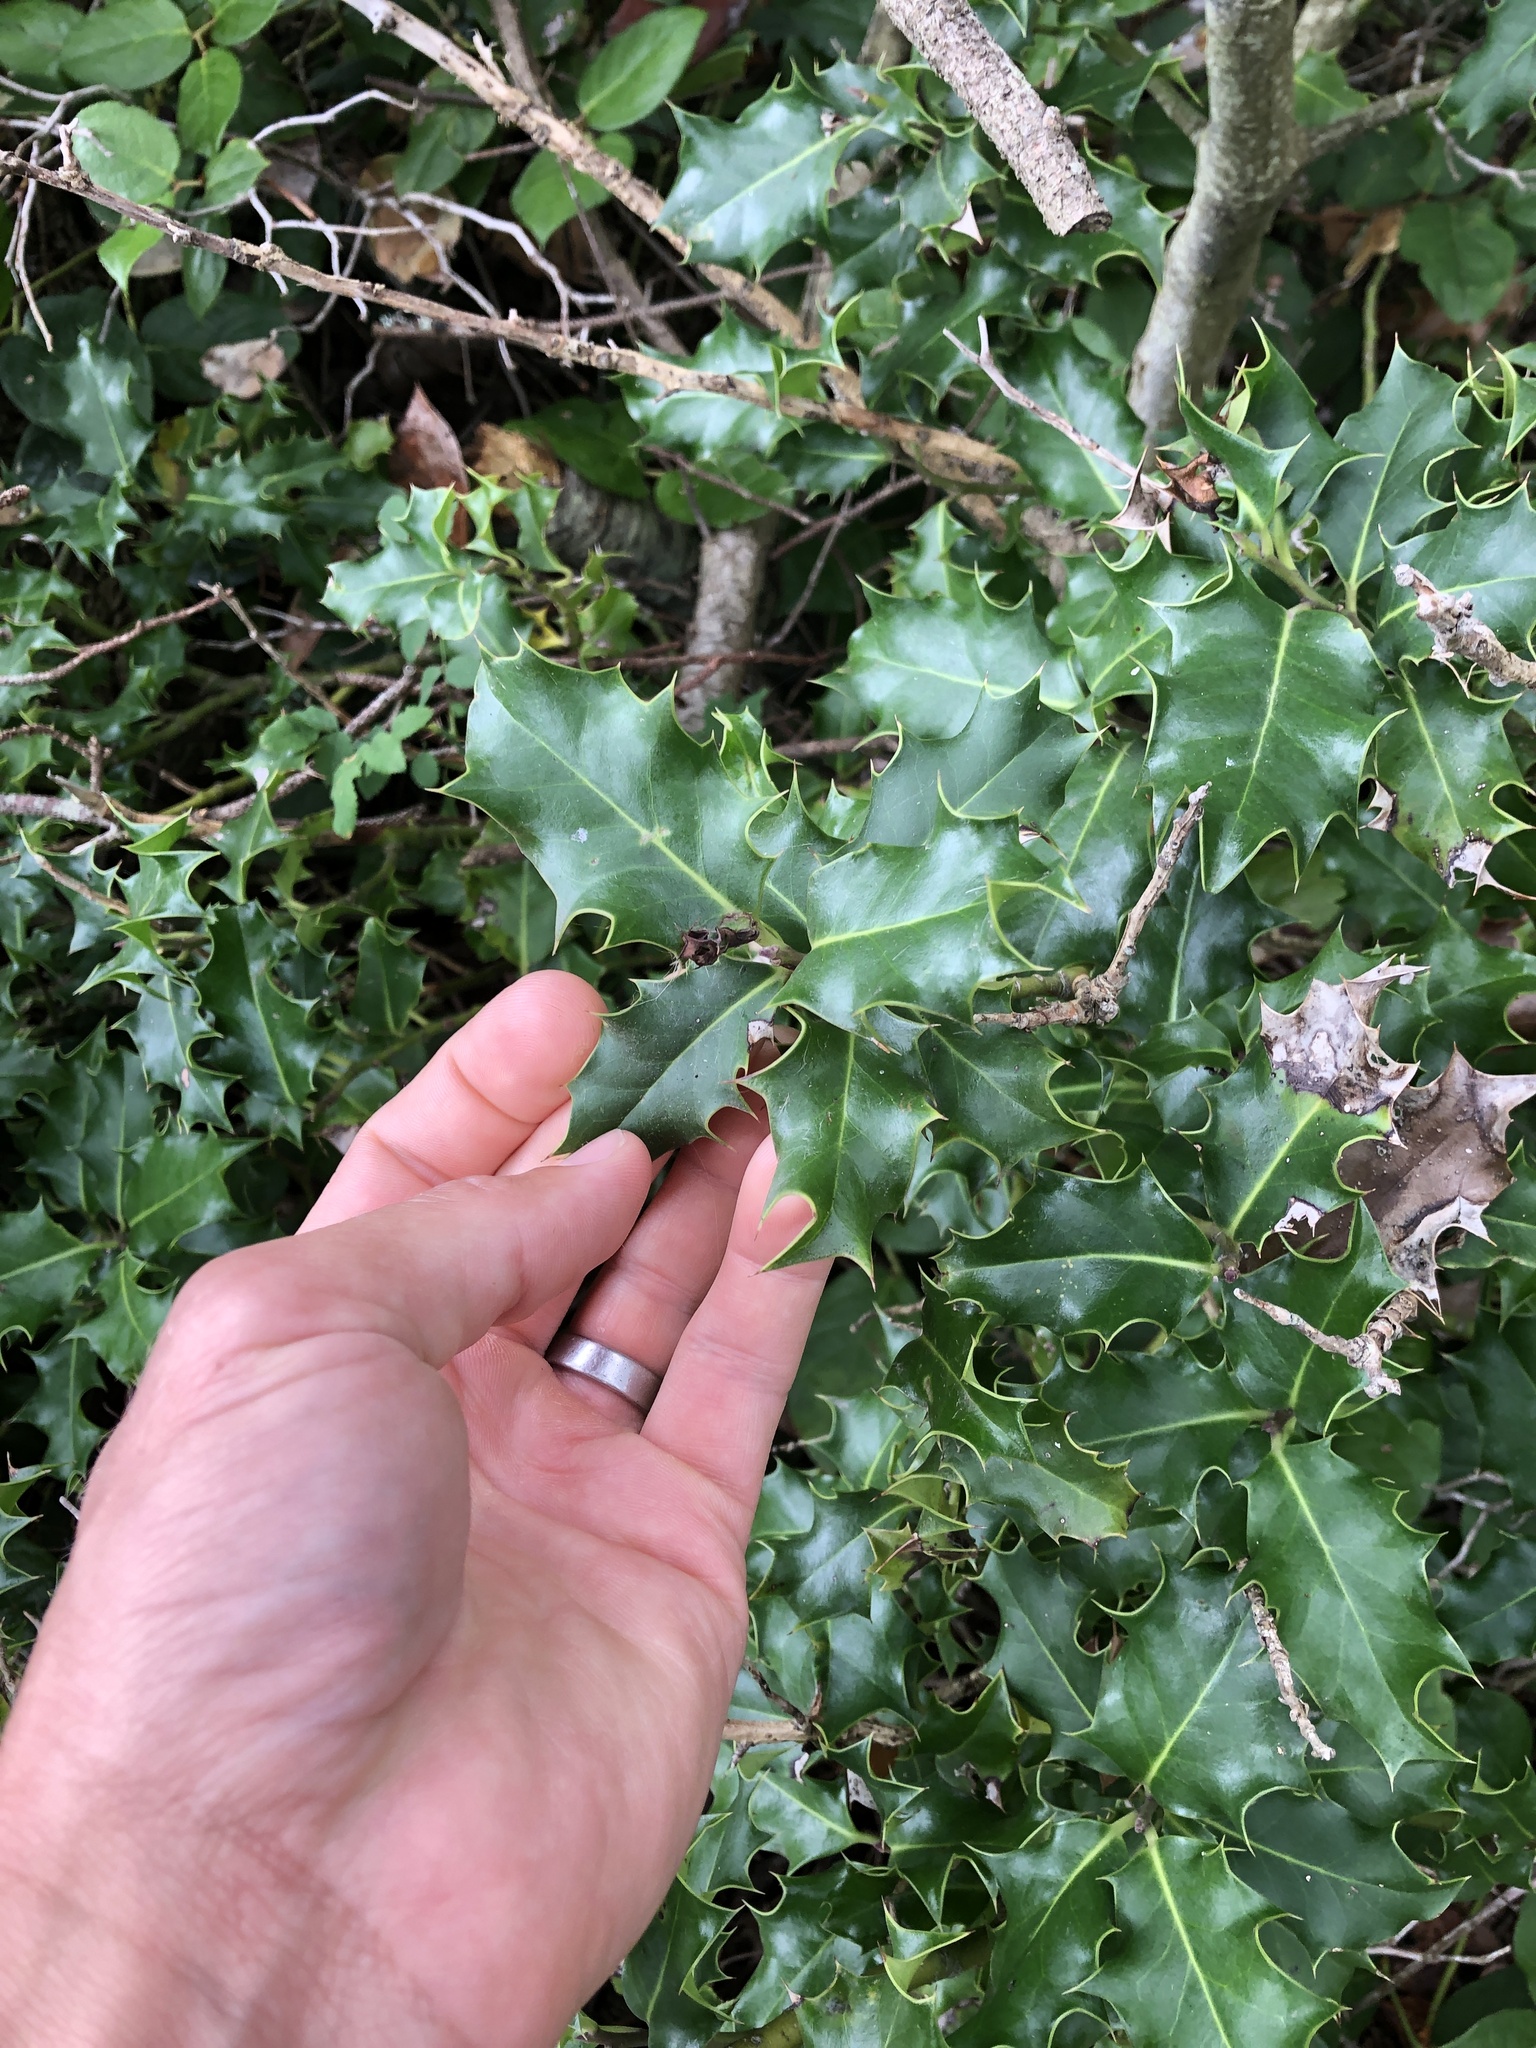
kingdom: Plantae
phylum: Tracheophyta
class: Magnoliopsida
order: Aquifoliales
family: Aquifoliaceae
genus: Ilex
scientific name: Ilex aquifolium
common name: English holly
